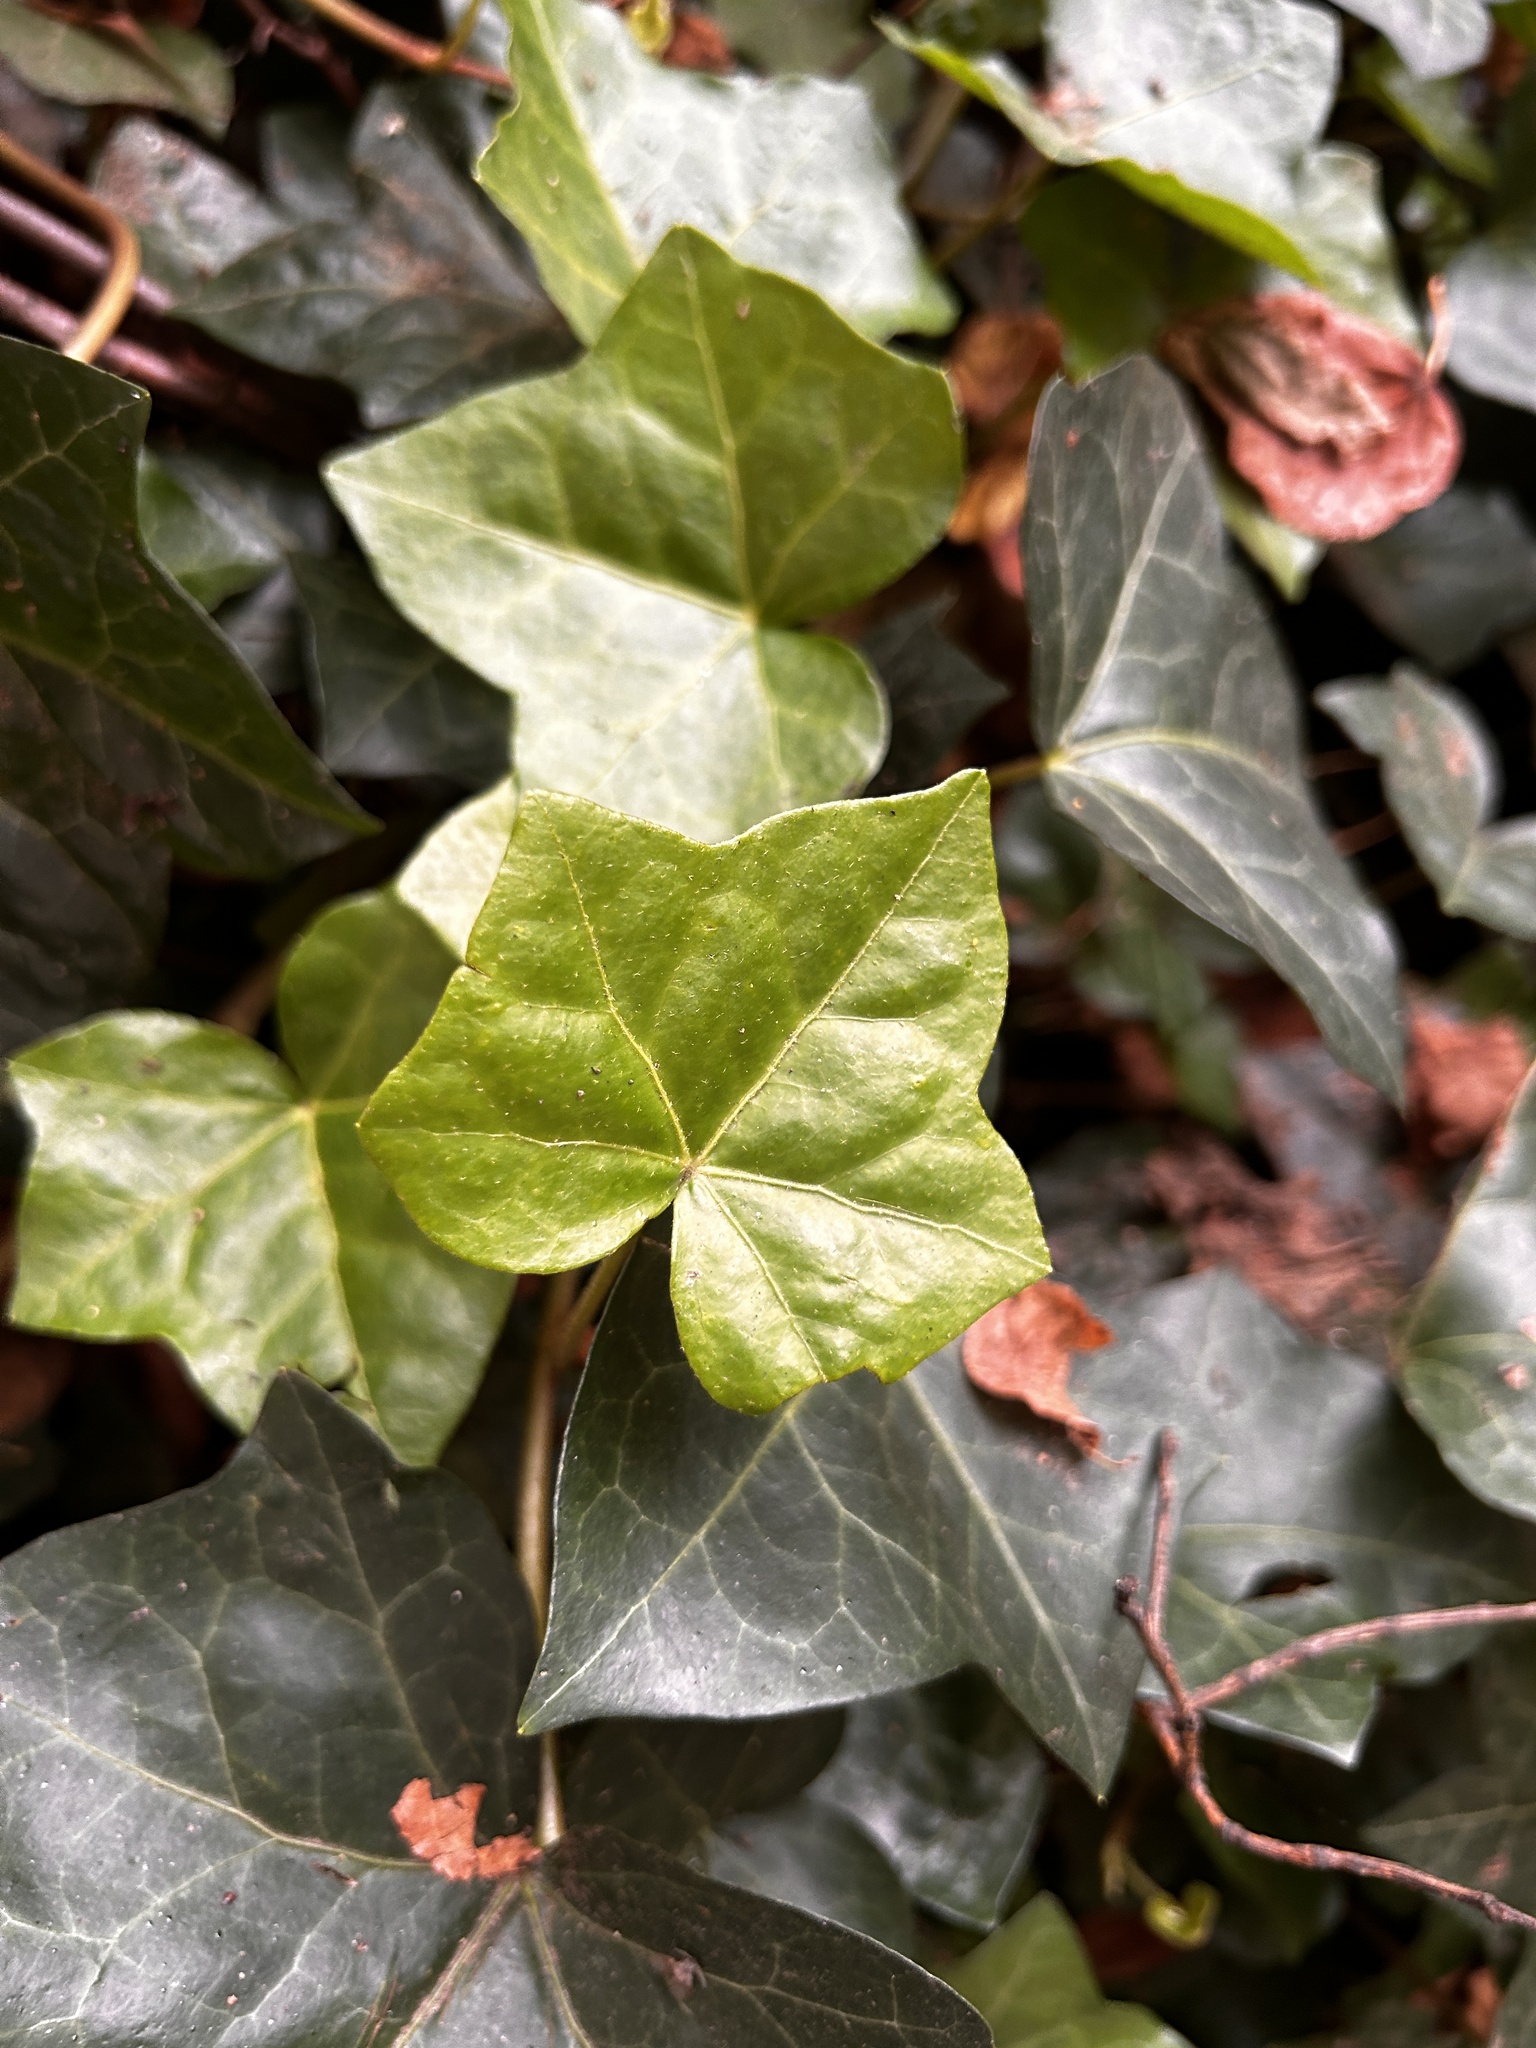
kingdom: Plantae
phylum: Tracheophyta
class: Magnoliopsida
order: Apiales
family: Araliaceae
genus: Hedera
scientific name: Hedera helix
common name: Ivy
